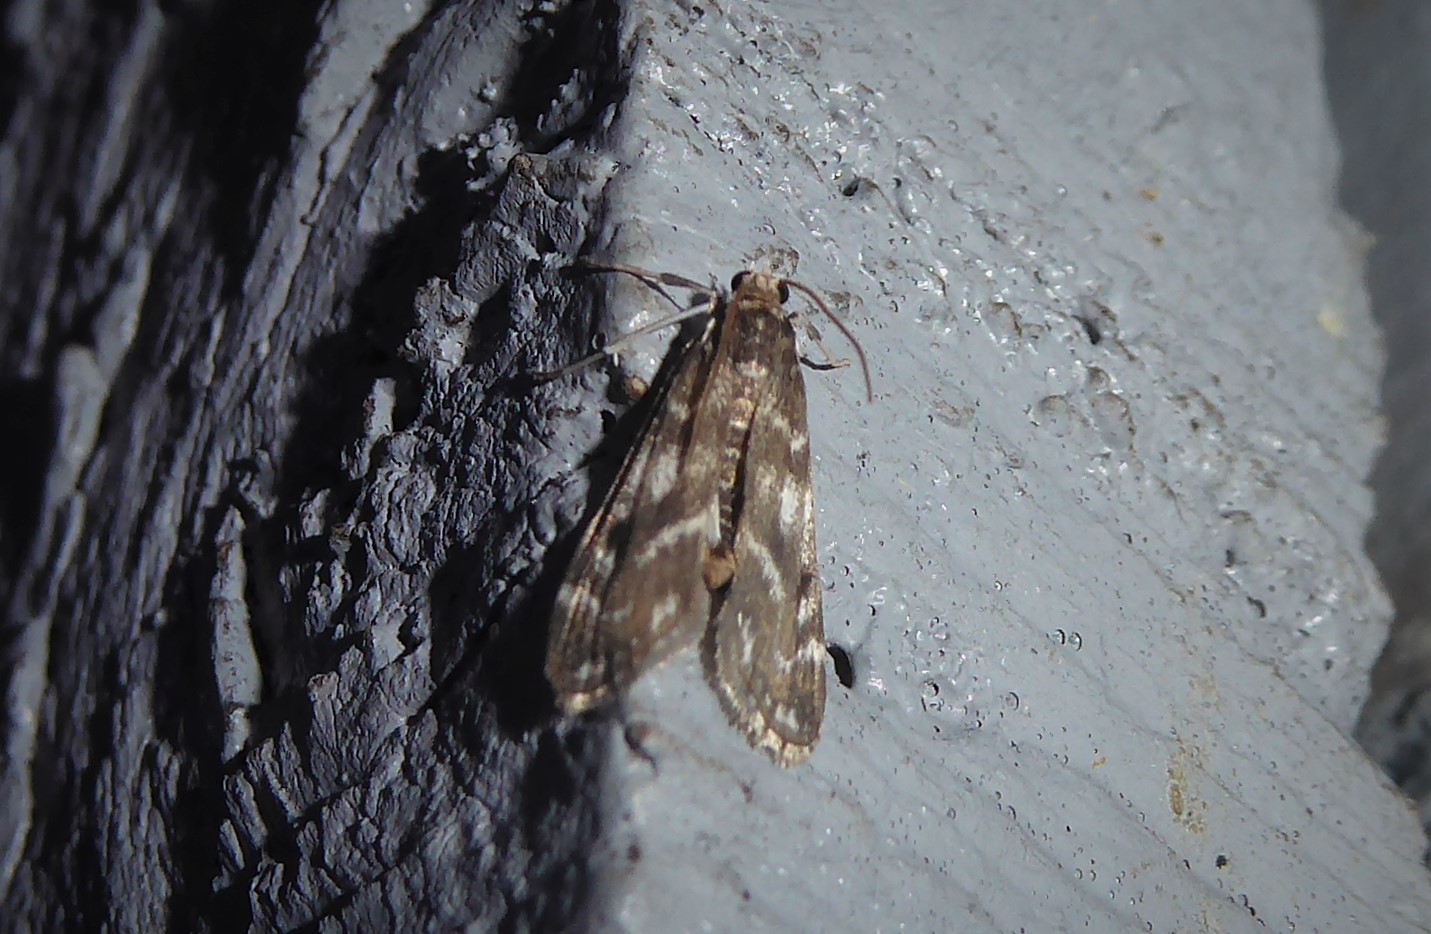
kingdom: Animalia
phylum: Arthropoda
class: Insecta
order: Lepidoptera
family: Crambidae
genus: Hygraula
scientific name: Hygraula nitens
